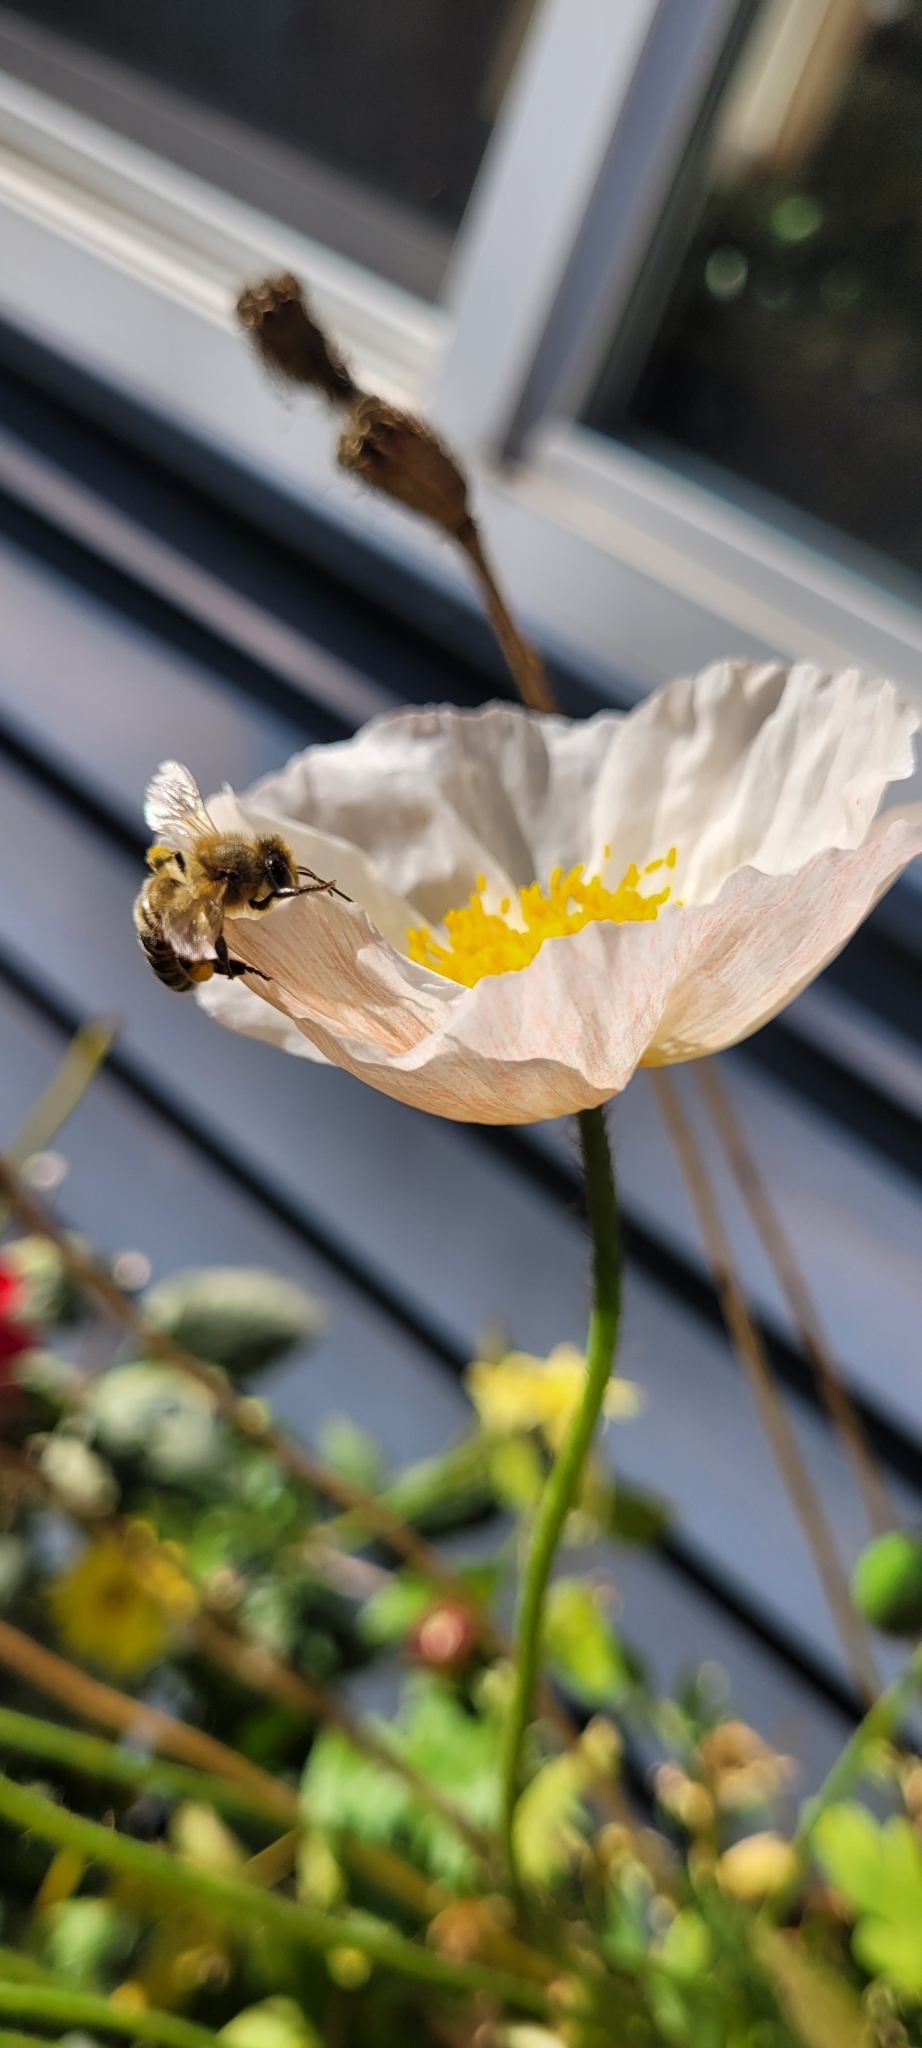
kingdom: Animalia
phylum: Arthropoda
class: Insecta
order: Hymenoptera
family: Apidae
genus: Apis
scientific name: Apis mellifera
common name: Honey bee
